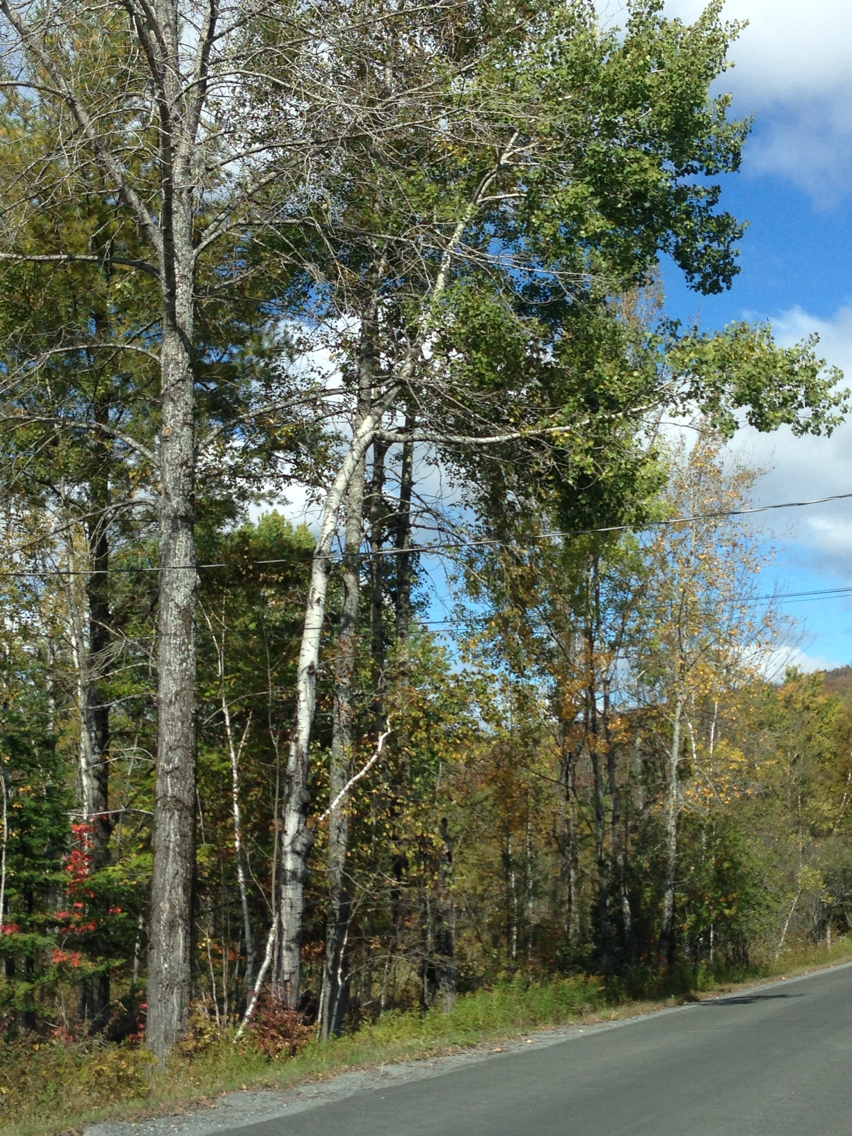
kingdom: Plantae
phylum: Tracheophyta
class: Magnoliopsida
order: Malpighiales
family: Salicaceae
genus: Populus
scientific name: Populus tremuloides
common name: Quaking aspen
